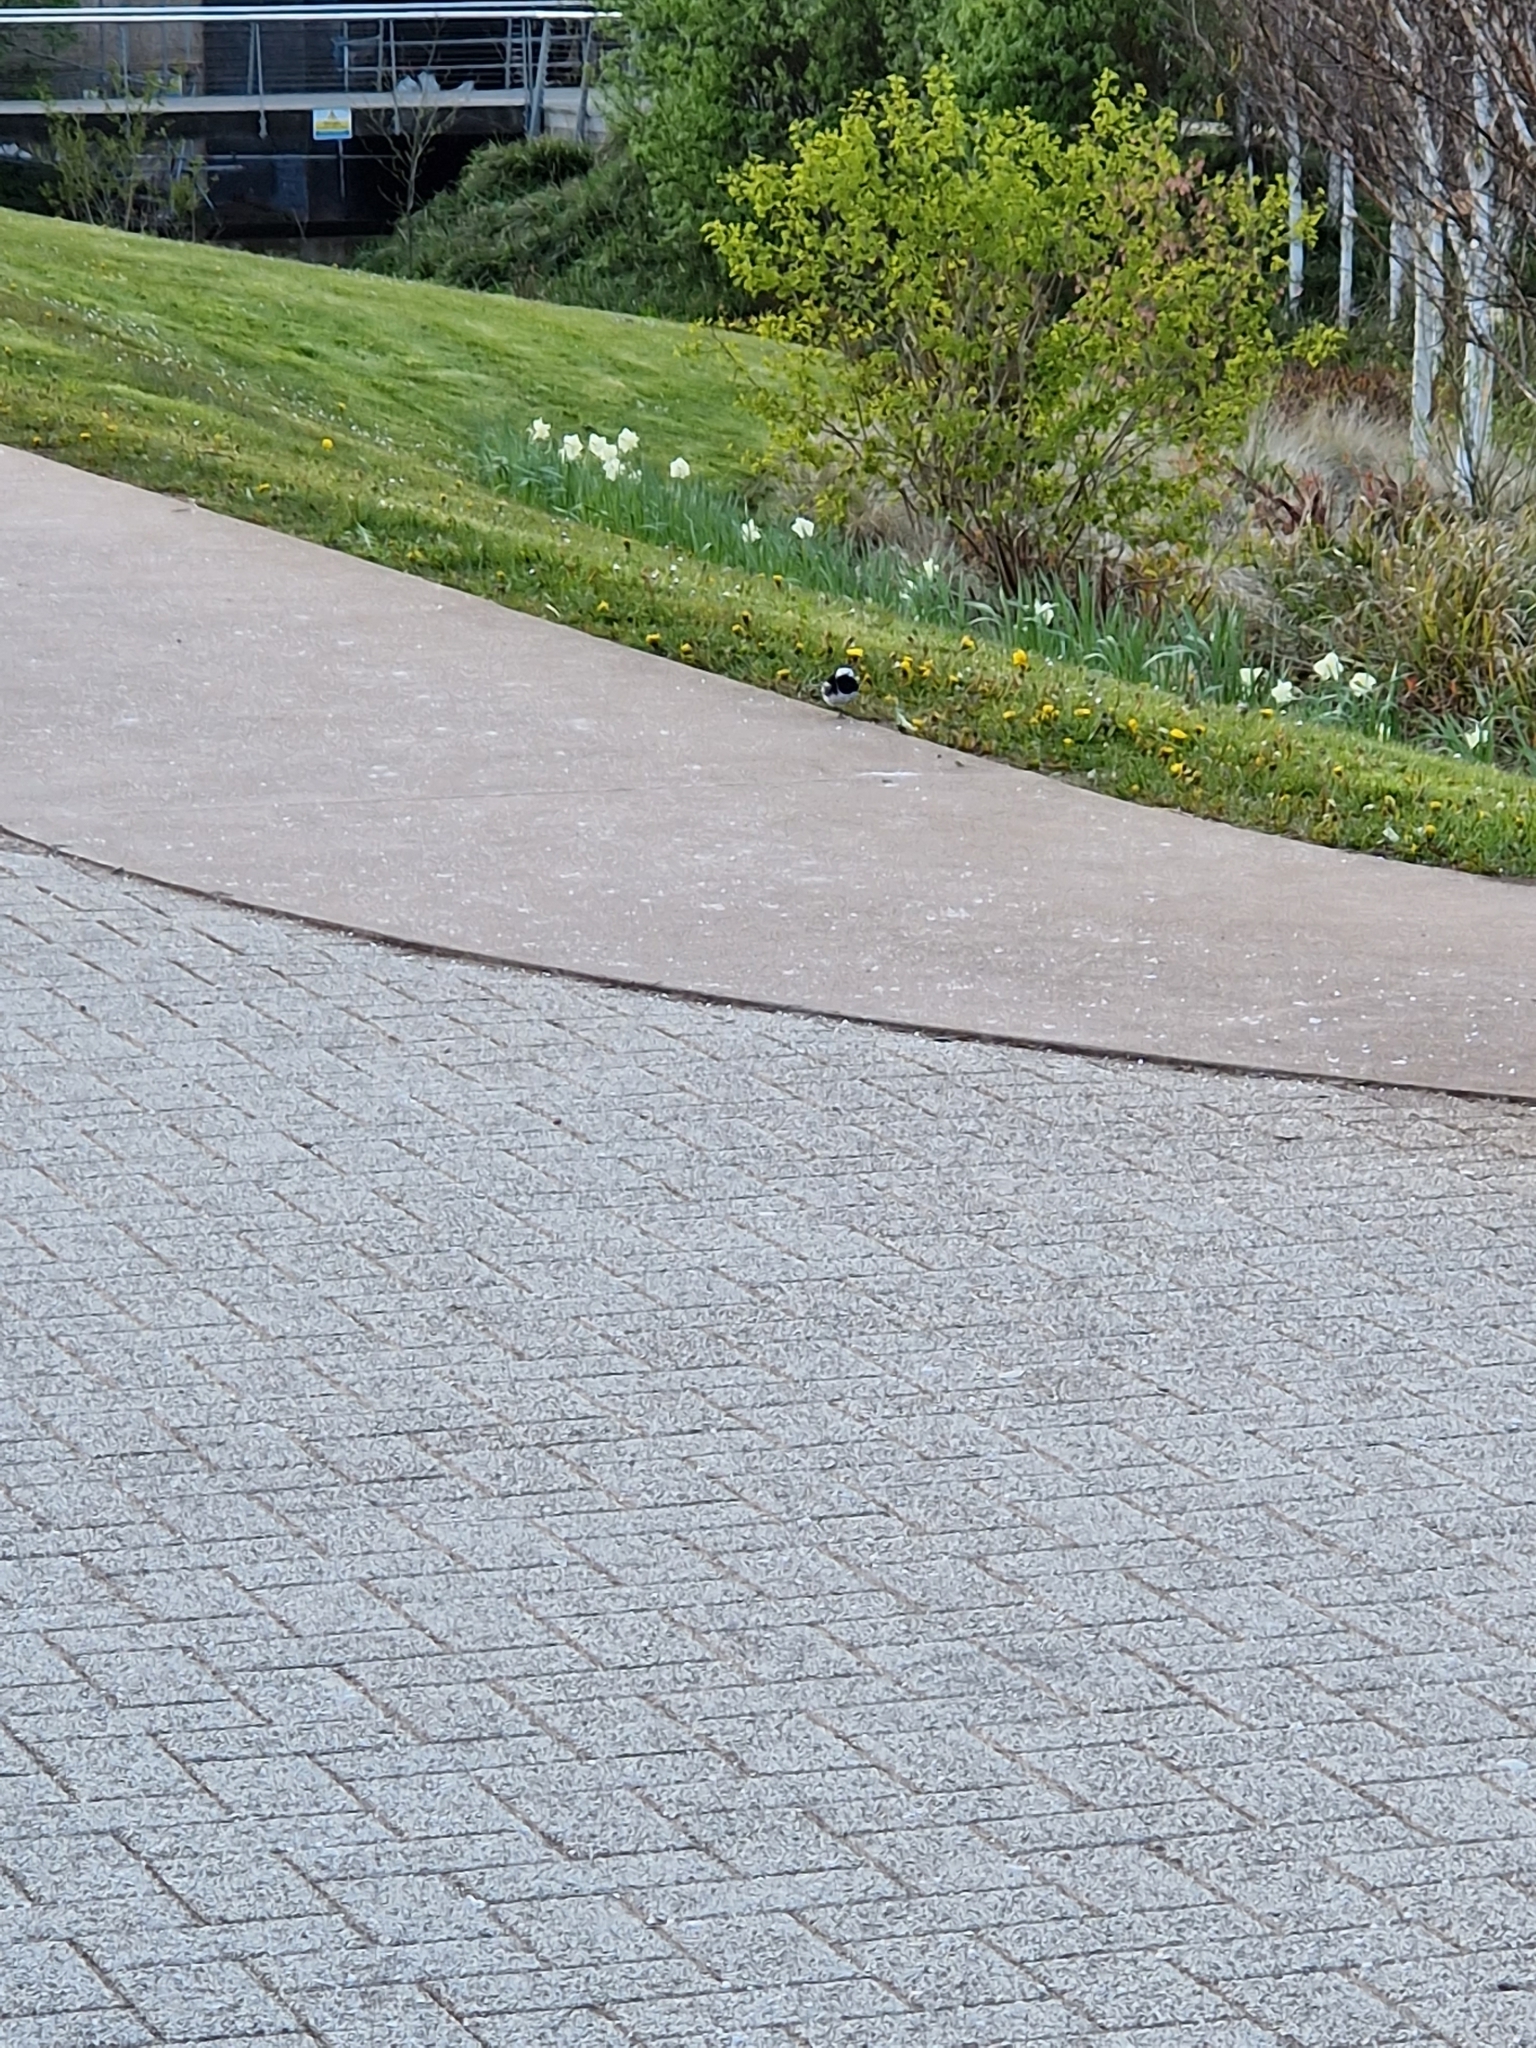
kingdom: Animalia
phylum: Chordata
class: Aves
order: Passeriformes
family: Motacillidae
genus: Motacilla
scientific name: Motacilla alba
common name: White wagtail
